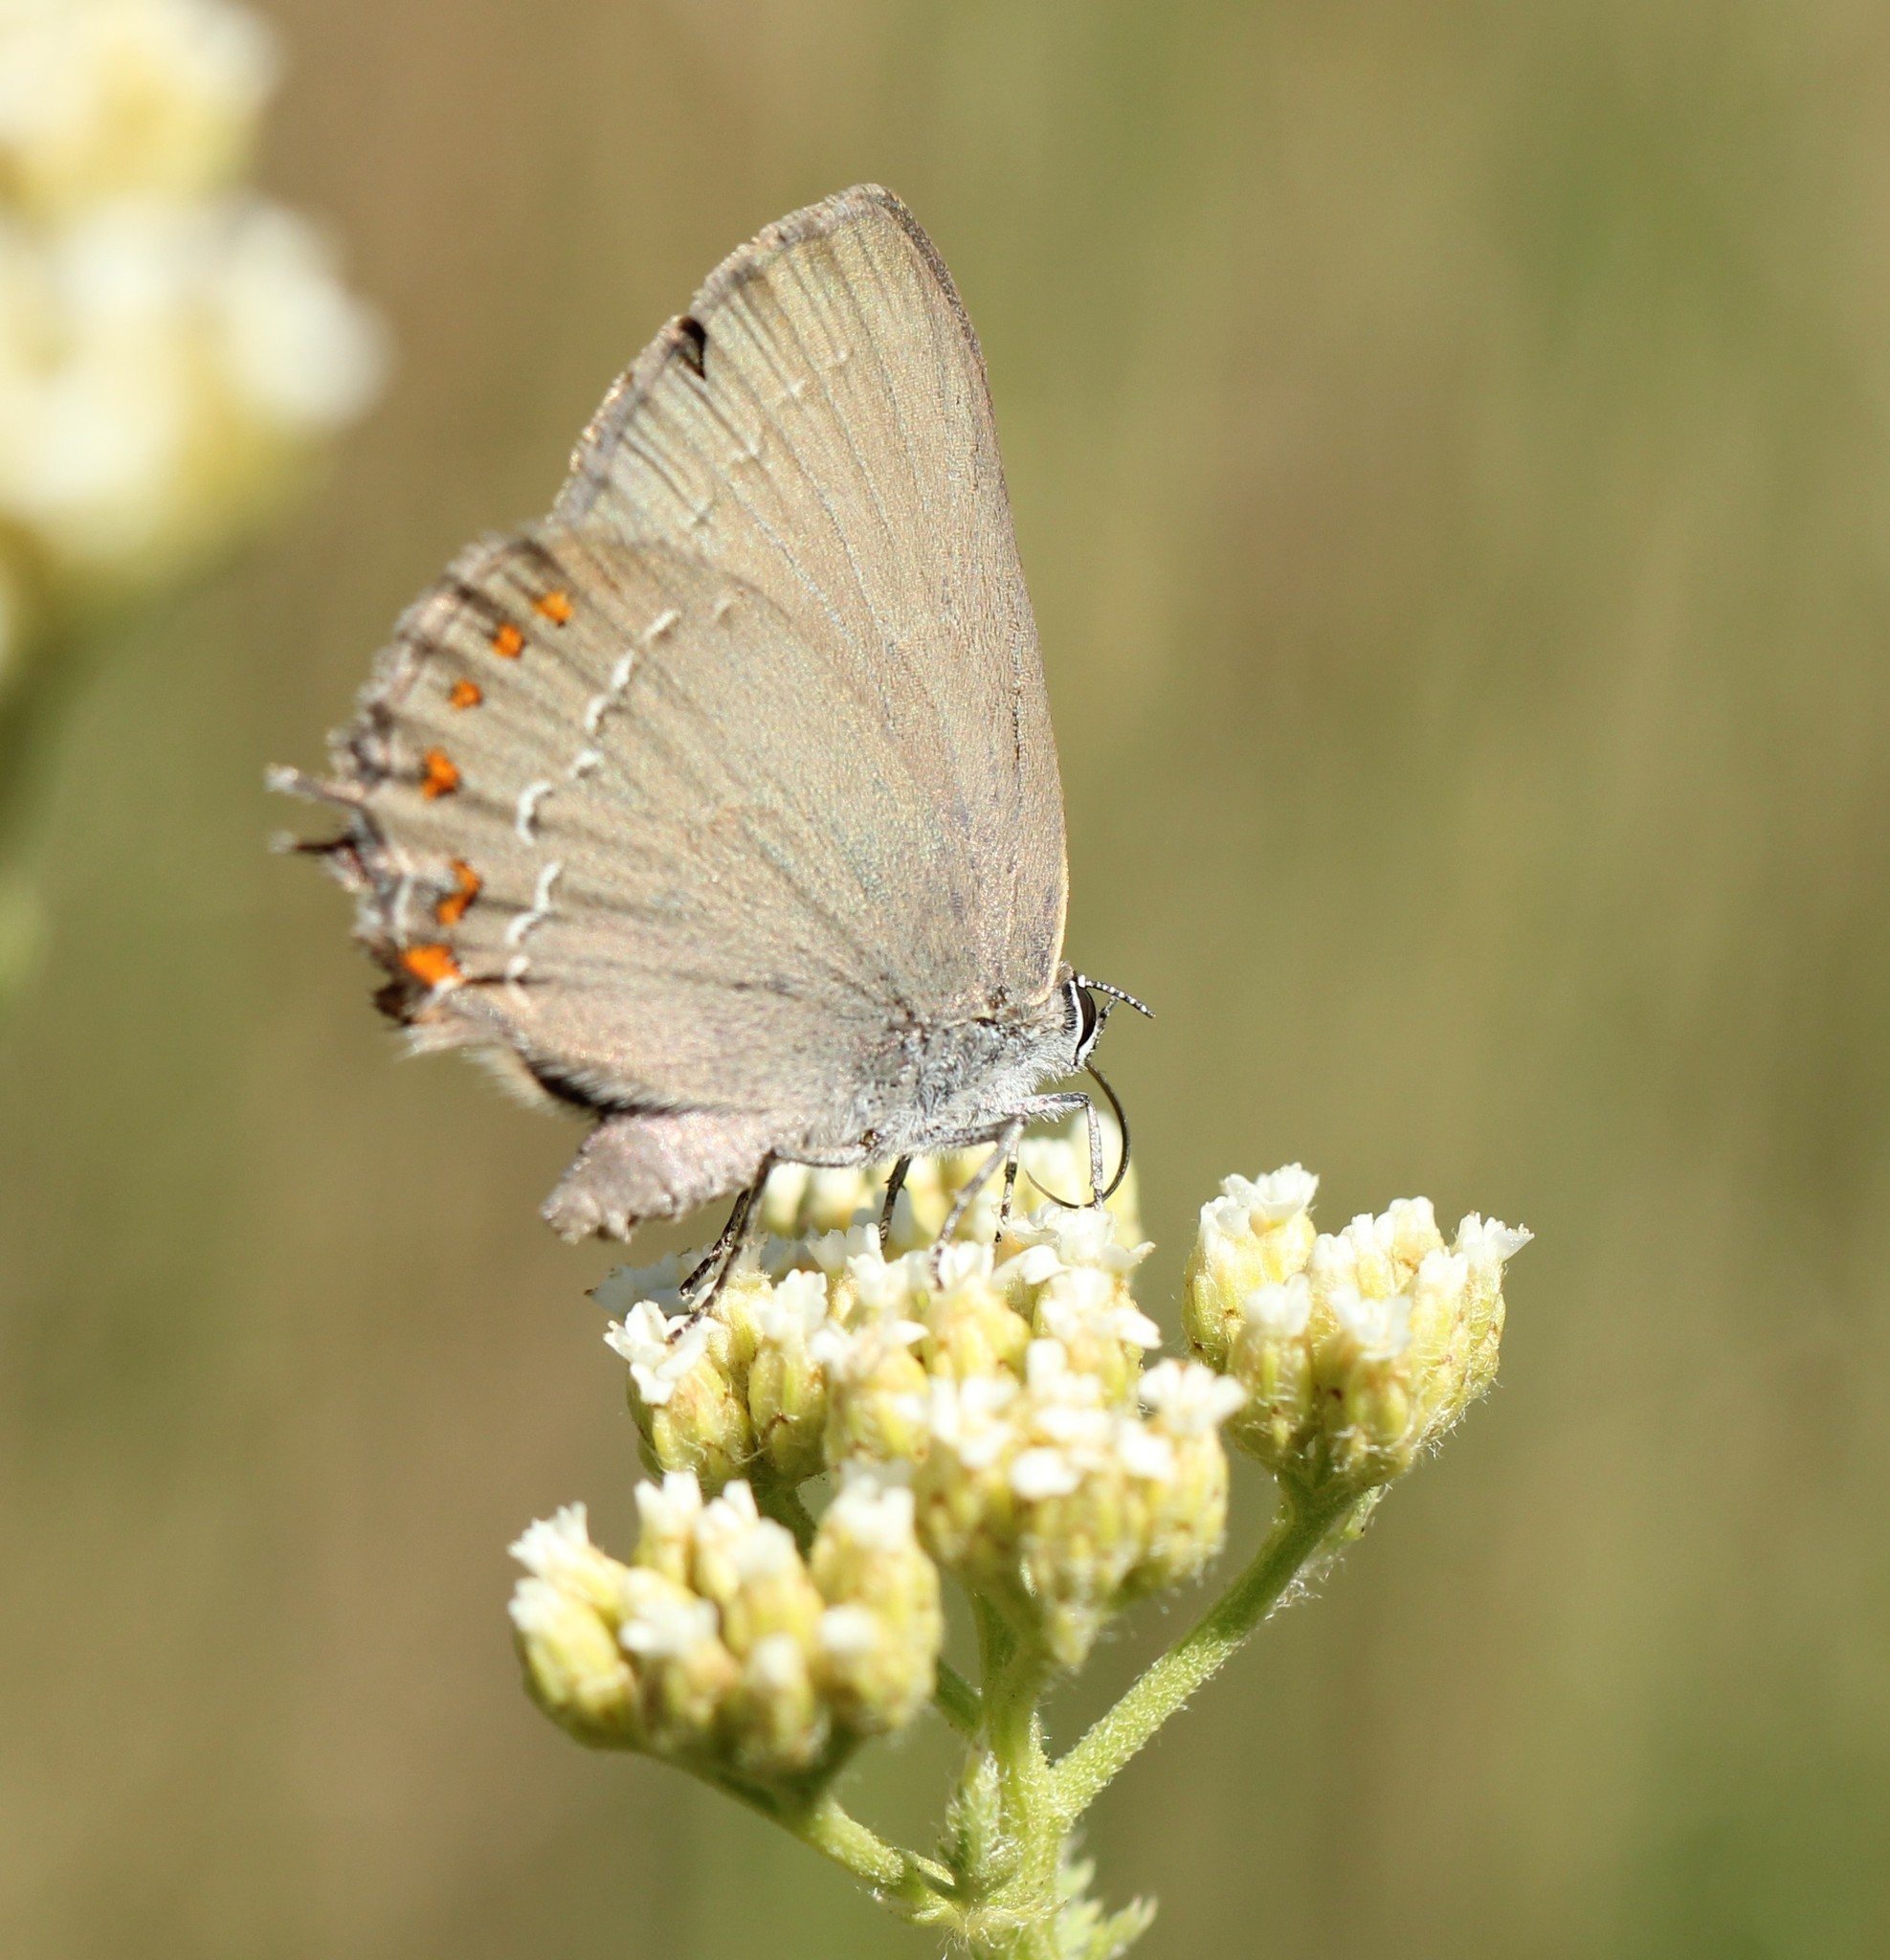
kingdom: Animalia
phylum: Arthropoda
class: Insecta
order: Lepidoptera
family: Lycaenidae
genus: Fixsenia
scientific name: Fixsenia esculi
